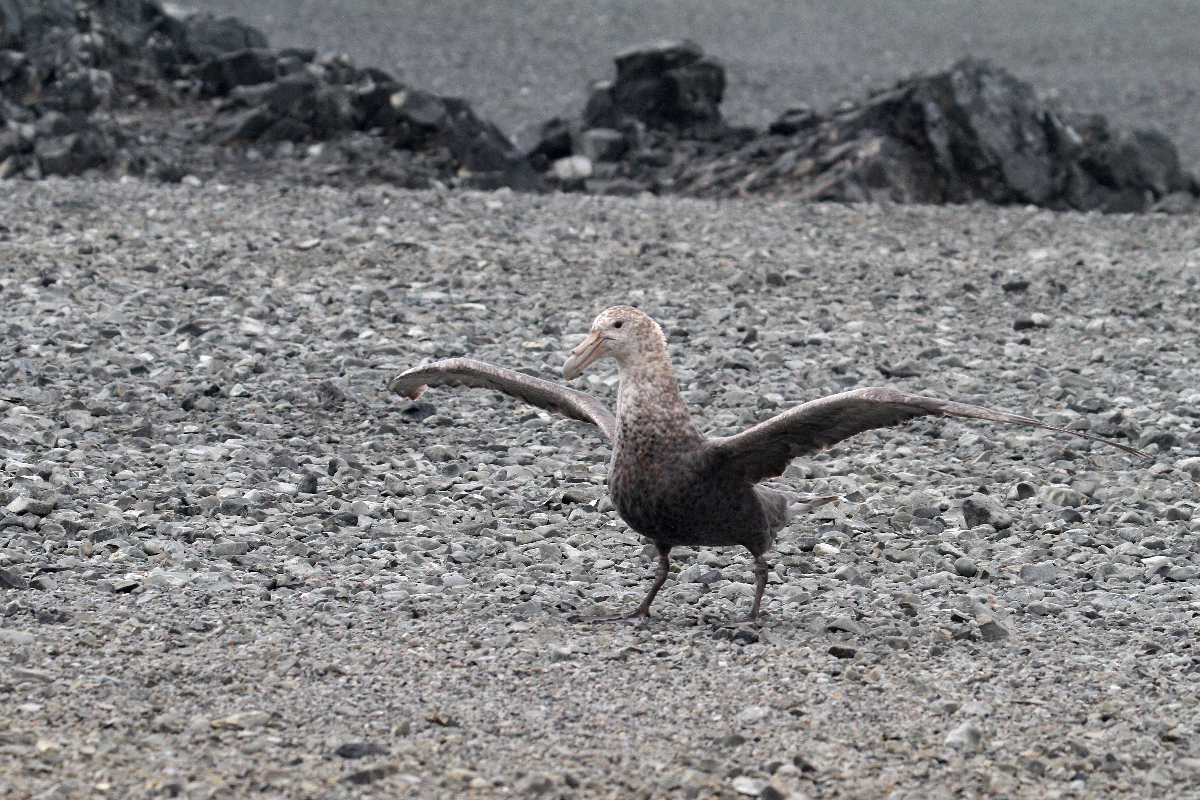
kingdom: Animalia
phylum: Chordata
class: Aves
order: Procellariiformes
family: Procellariidae
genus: Macronectes
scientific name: Macronectes giganteus
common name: Southern giant petrel
